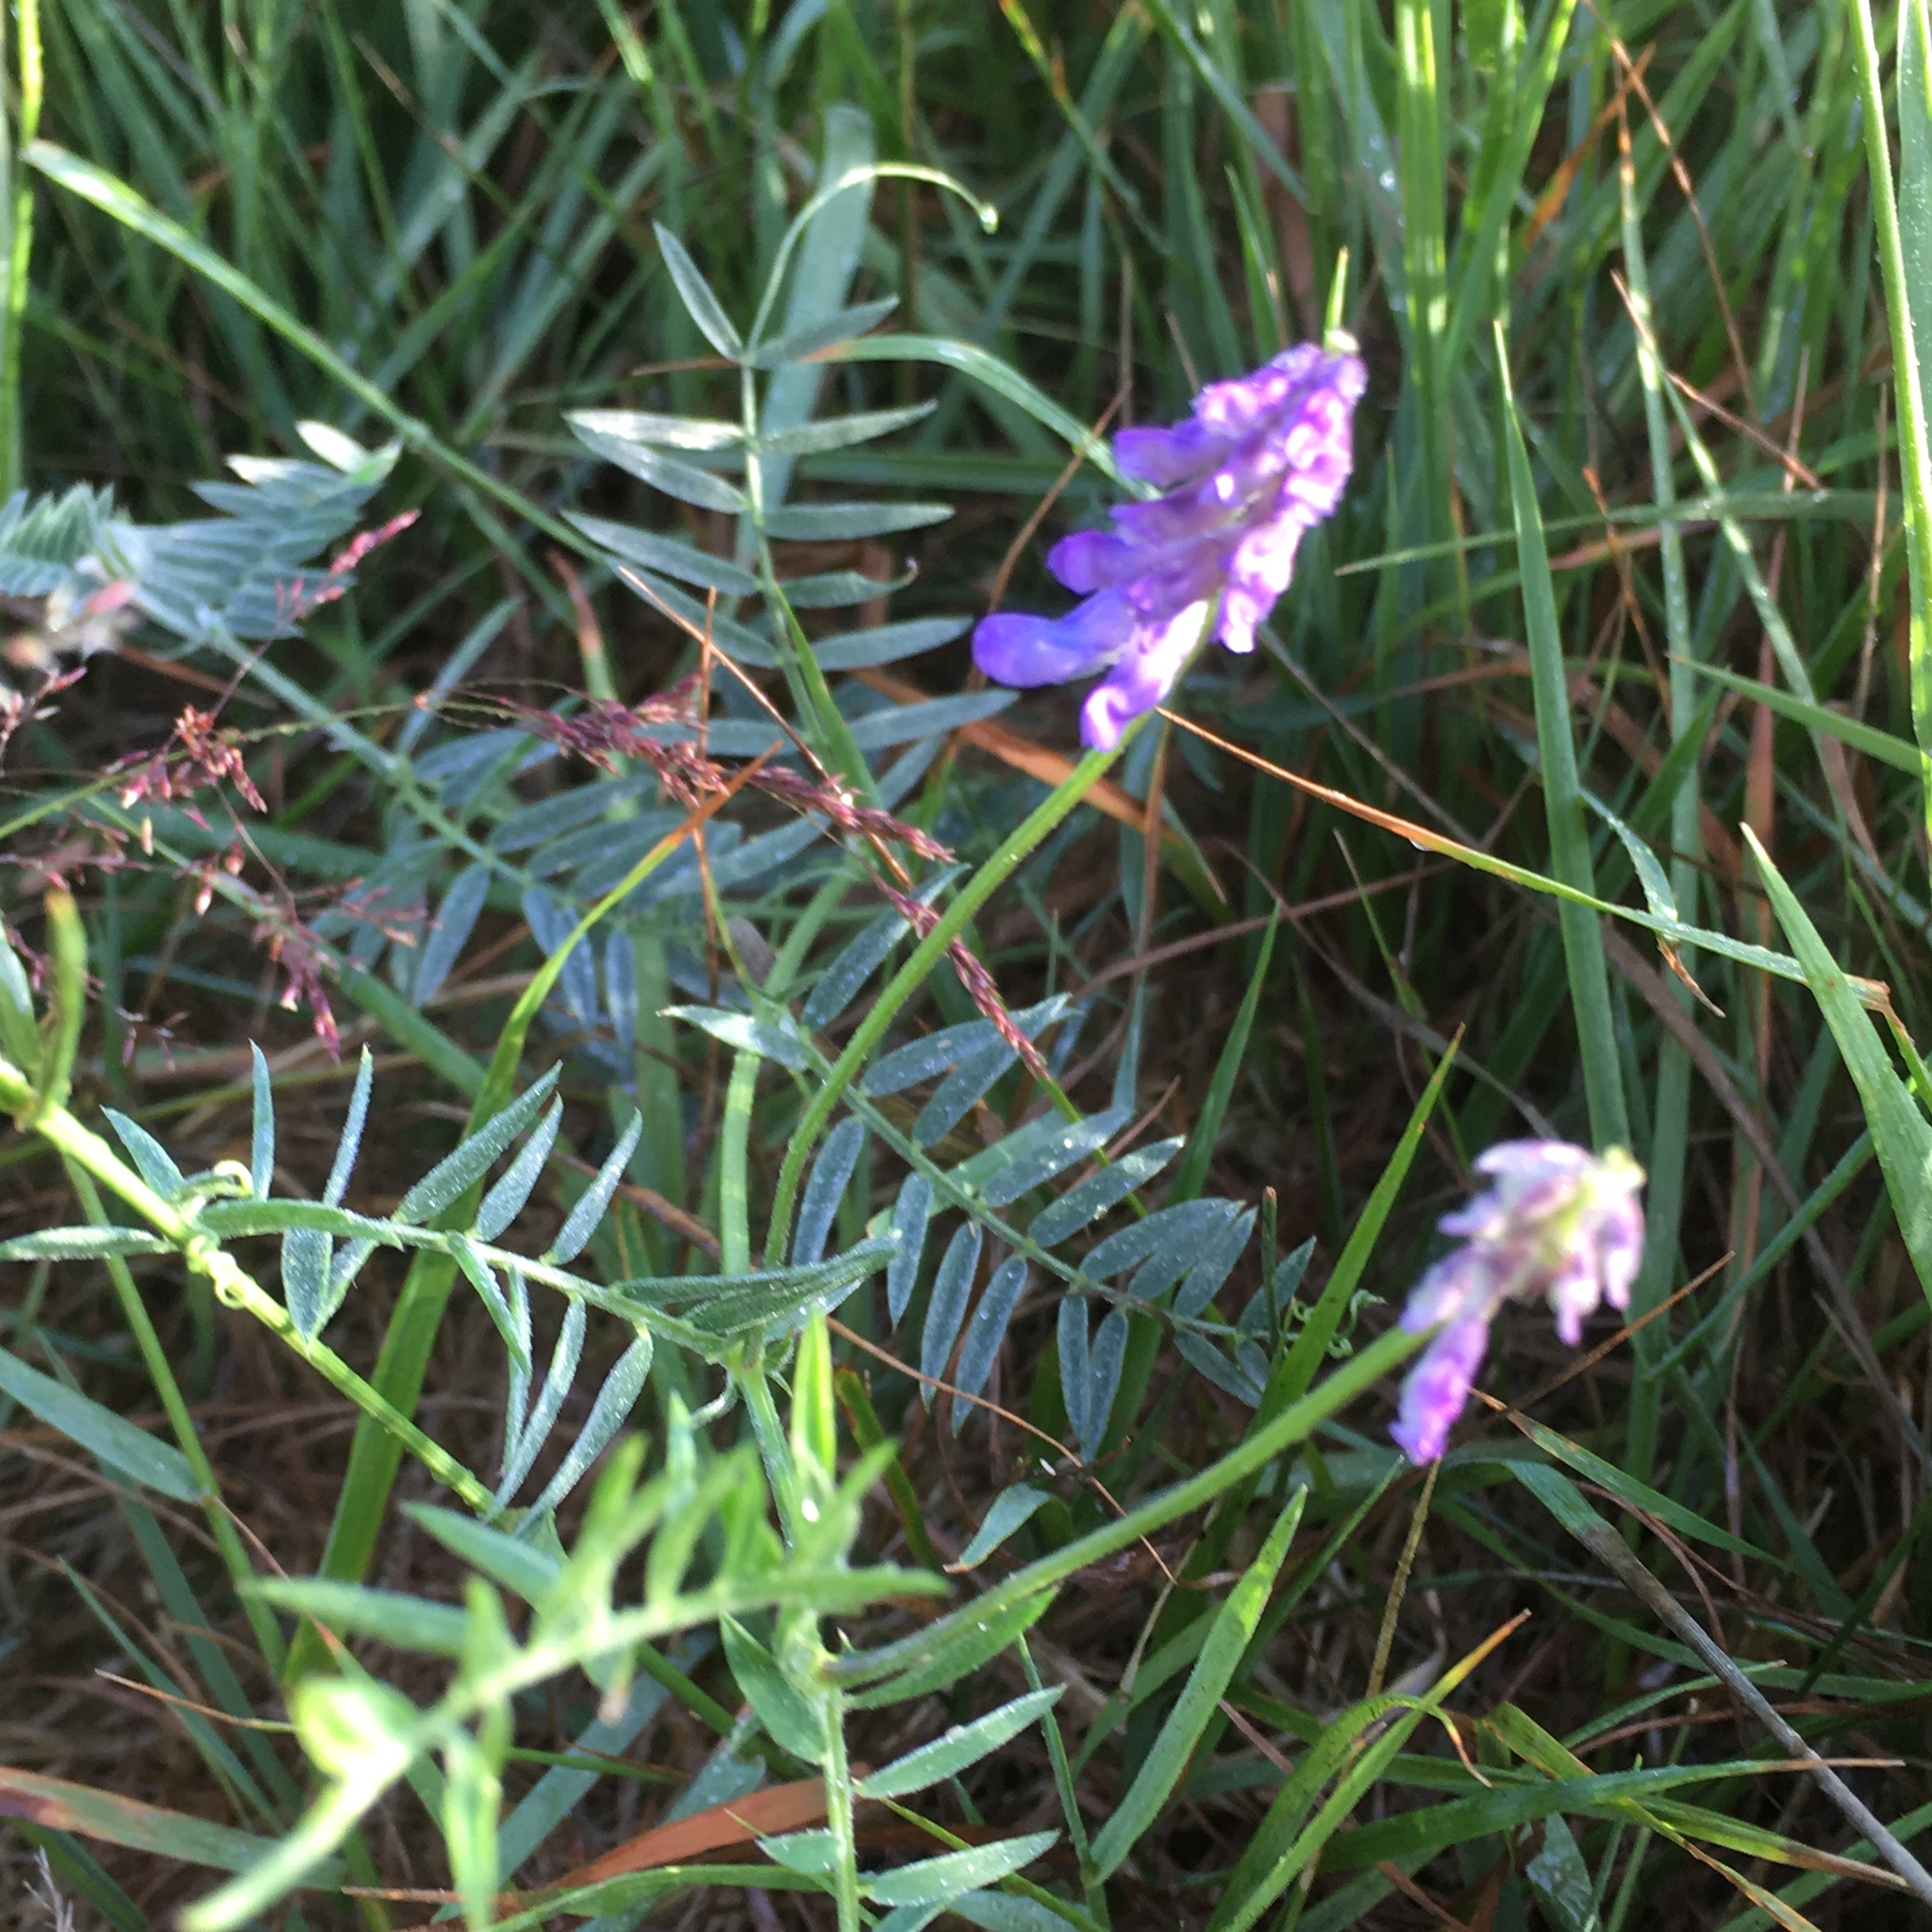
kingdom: Plantae
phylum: Tracheophyta
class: Magnoliopsida
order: Fabales
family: Fabaceae
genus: Vicia
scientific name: Vicia cracca
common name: Bird vetch
